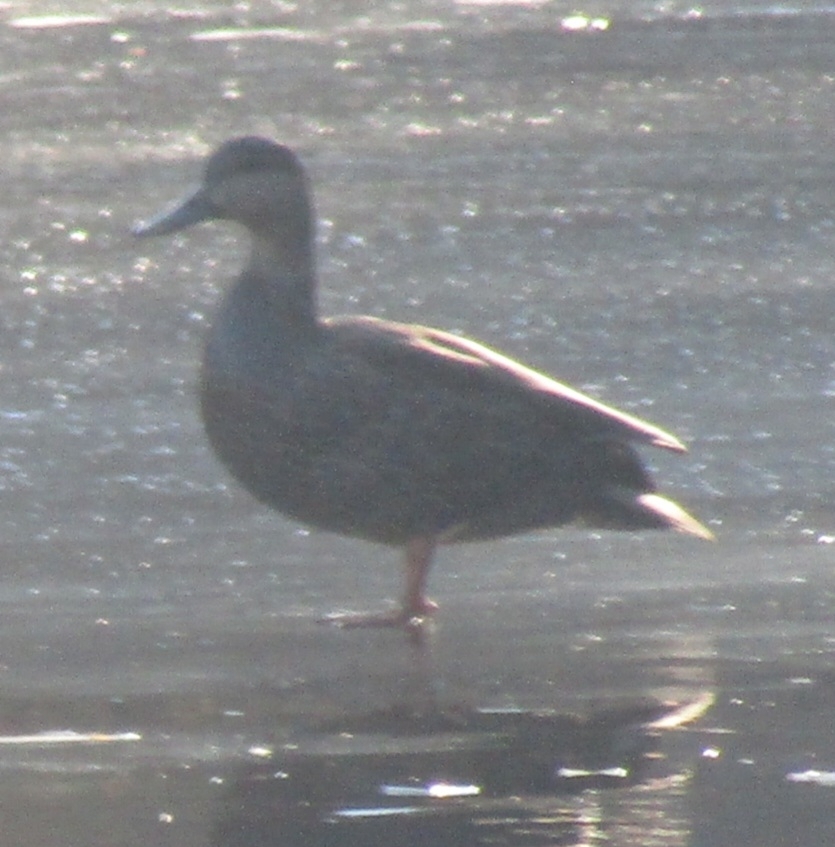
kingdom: Animalia
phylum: Chordata
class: Aves
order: Anseriformes
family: Anatidae
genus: Anas
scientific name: Anas rubripes
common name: American black duck
